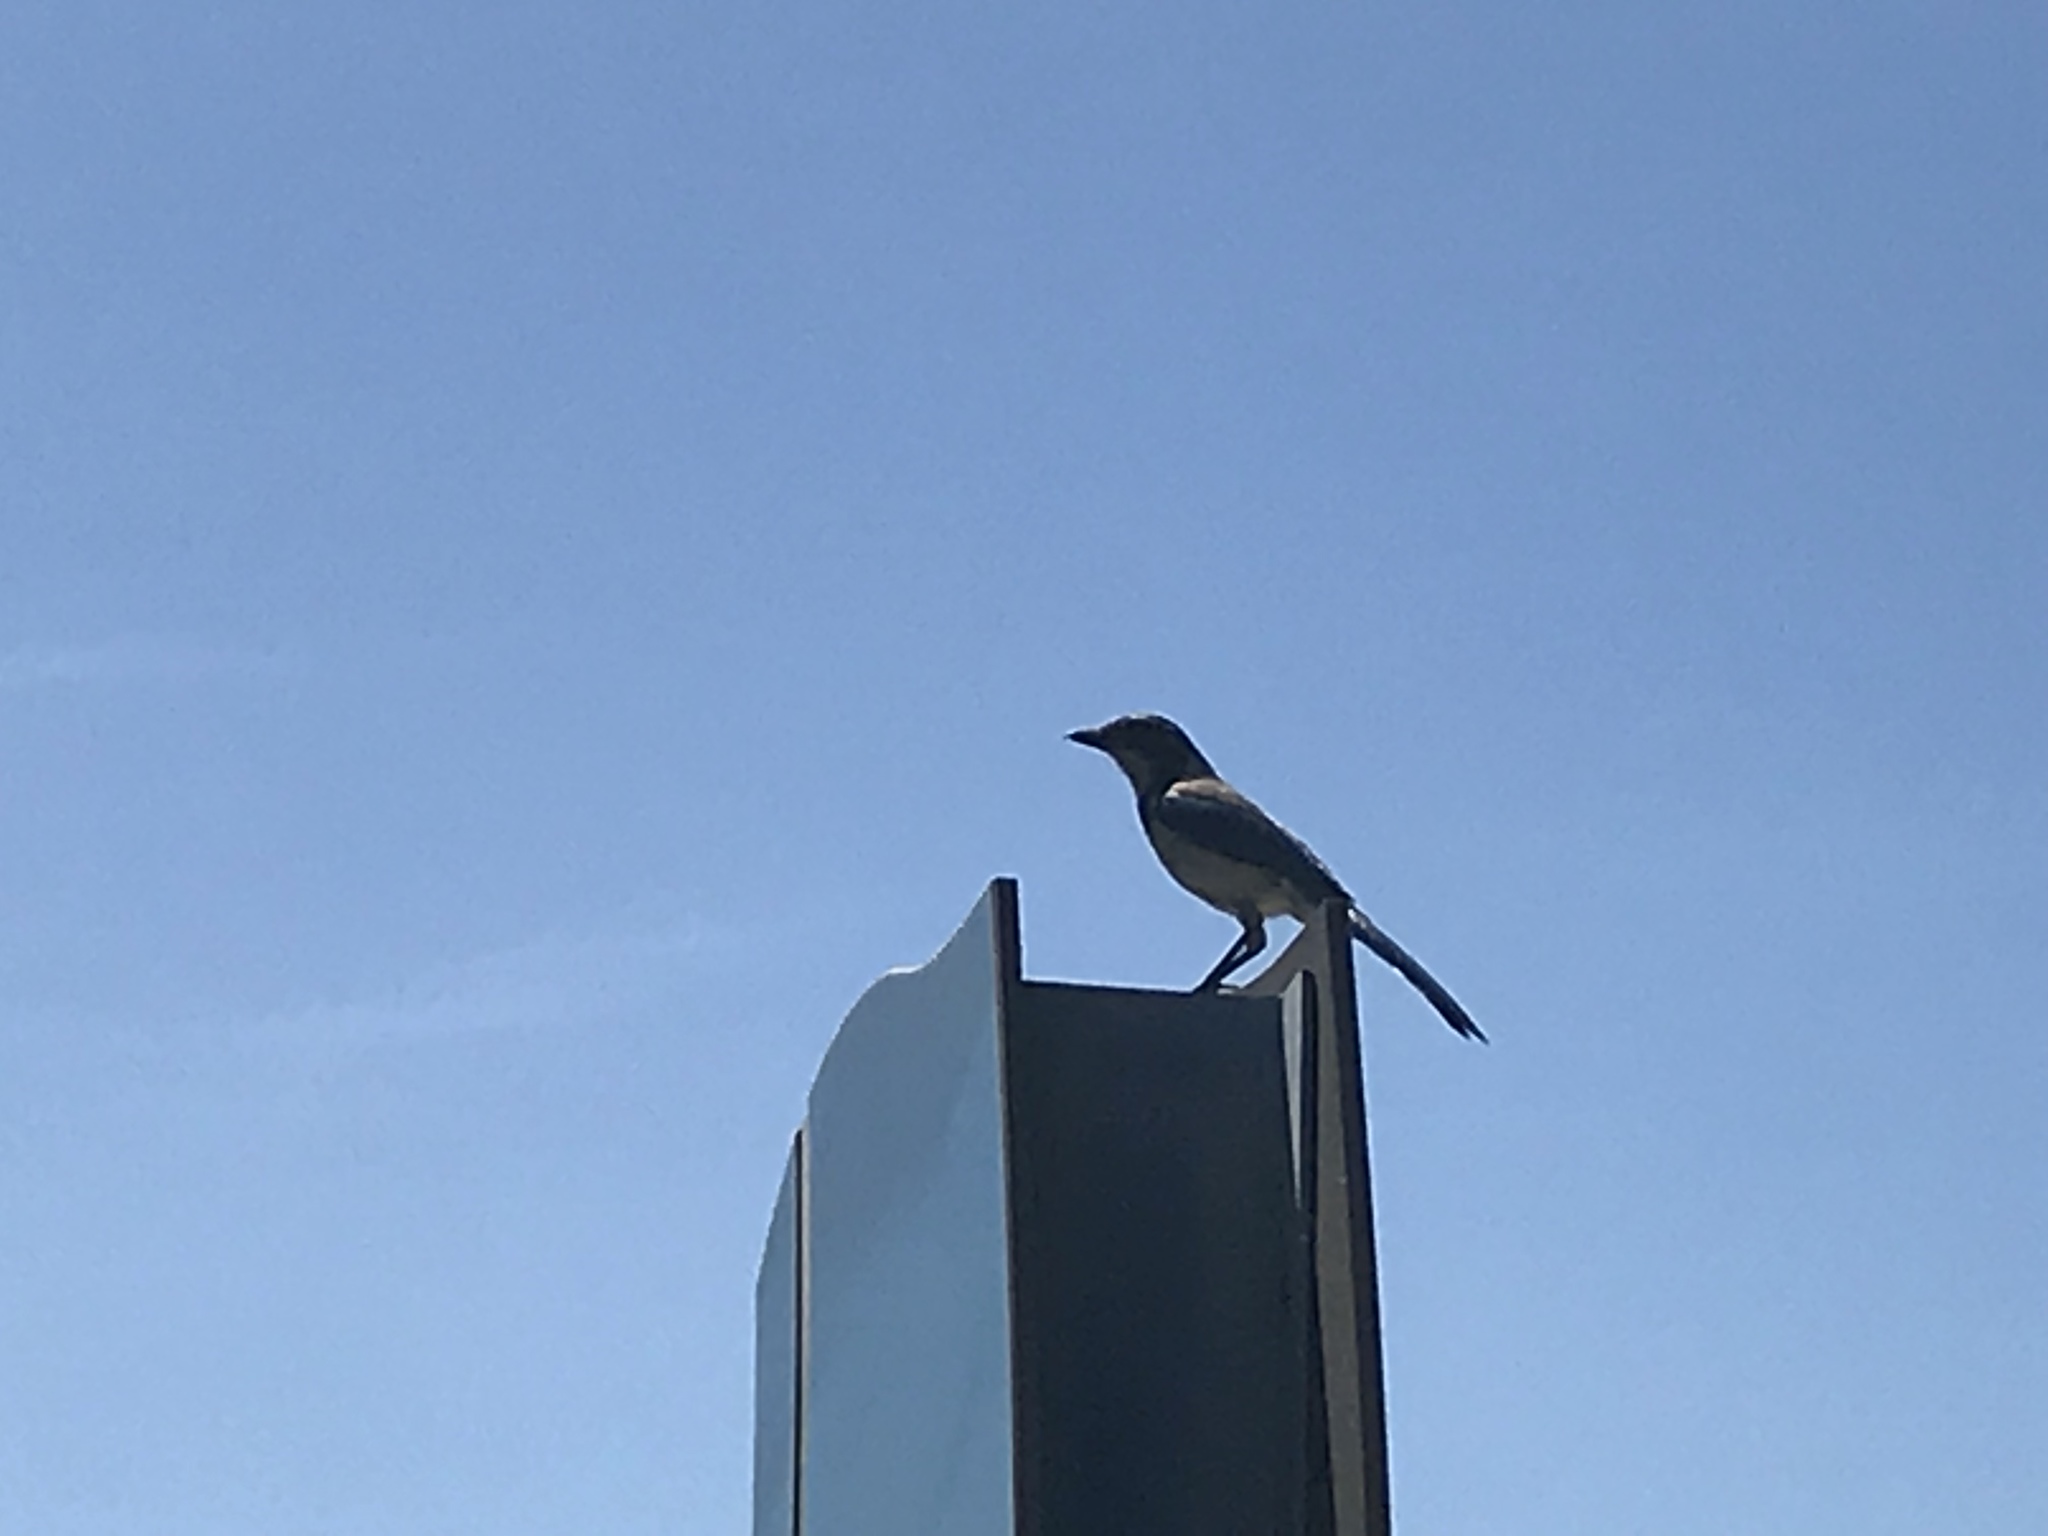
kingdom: Animalia
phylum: Chordata
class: Aves
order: Passeriformes
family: Corvidae
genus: Aphelocoma
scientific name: Aphelocoma californica
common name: California scrub-jay
